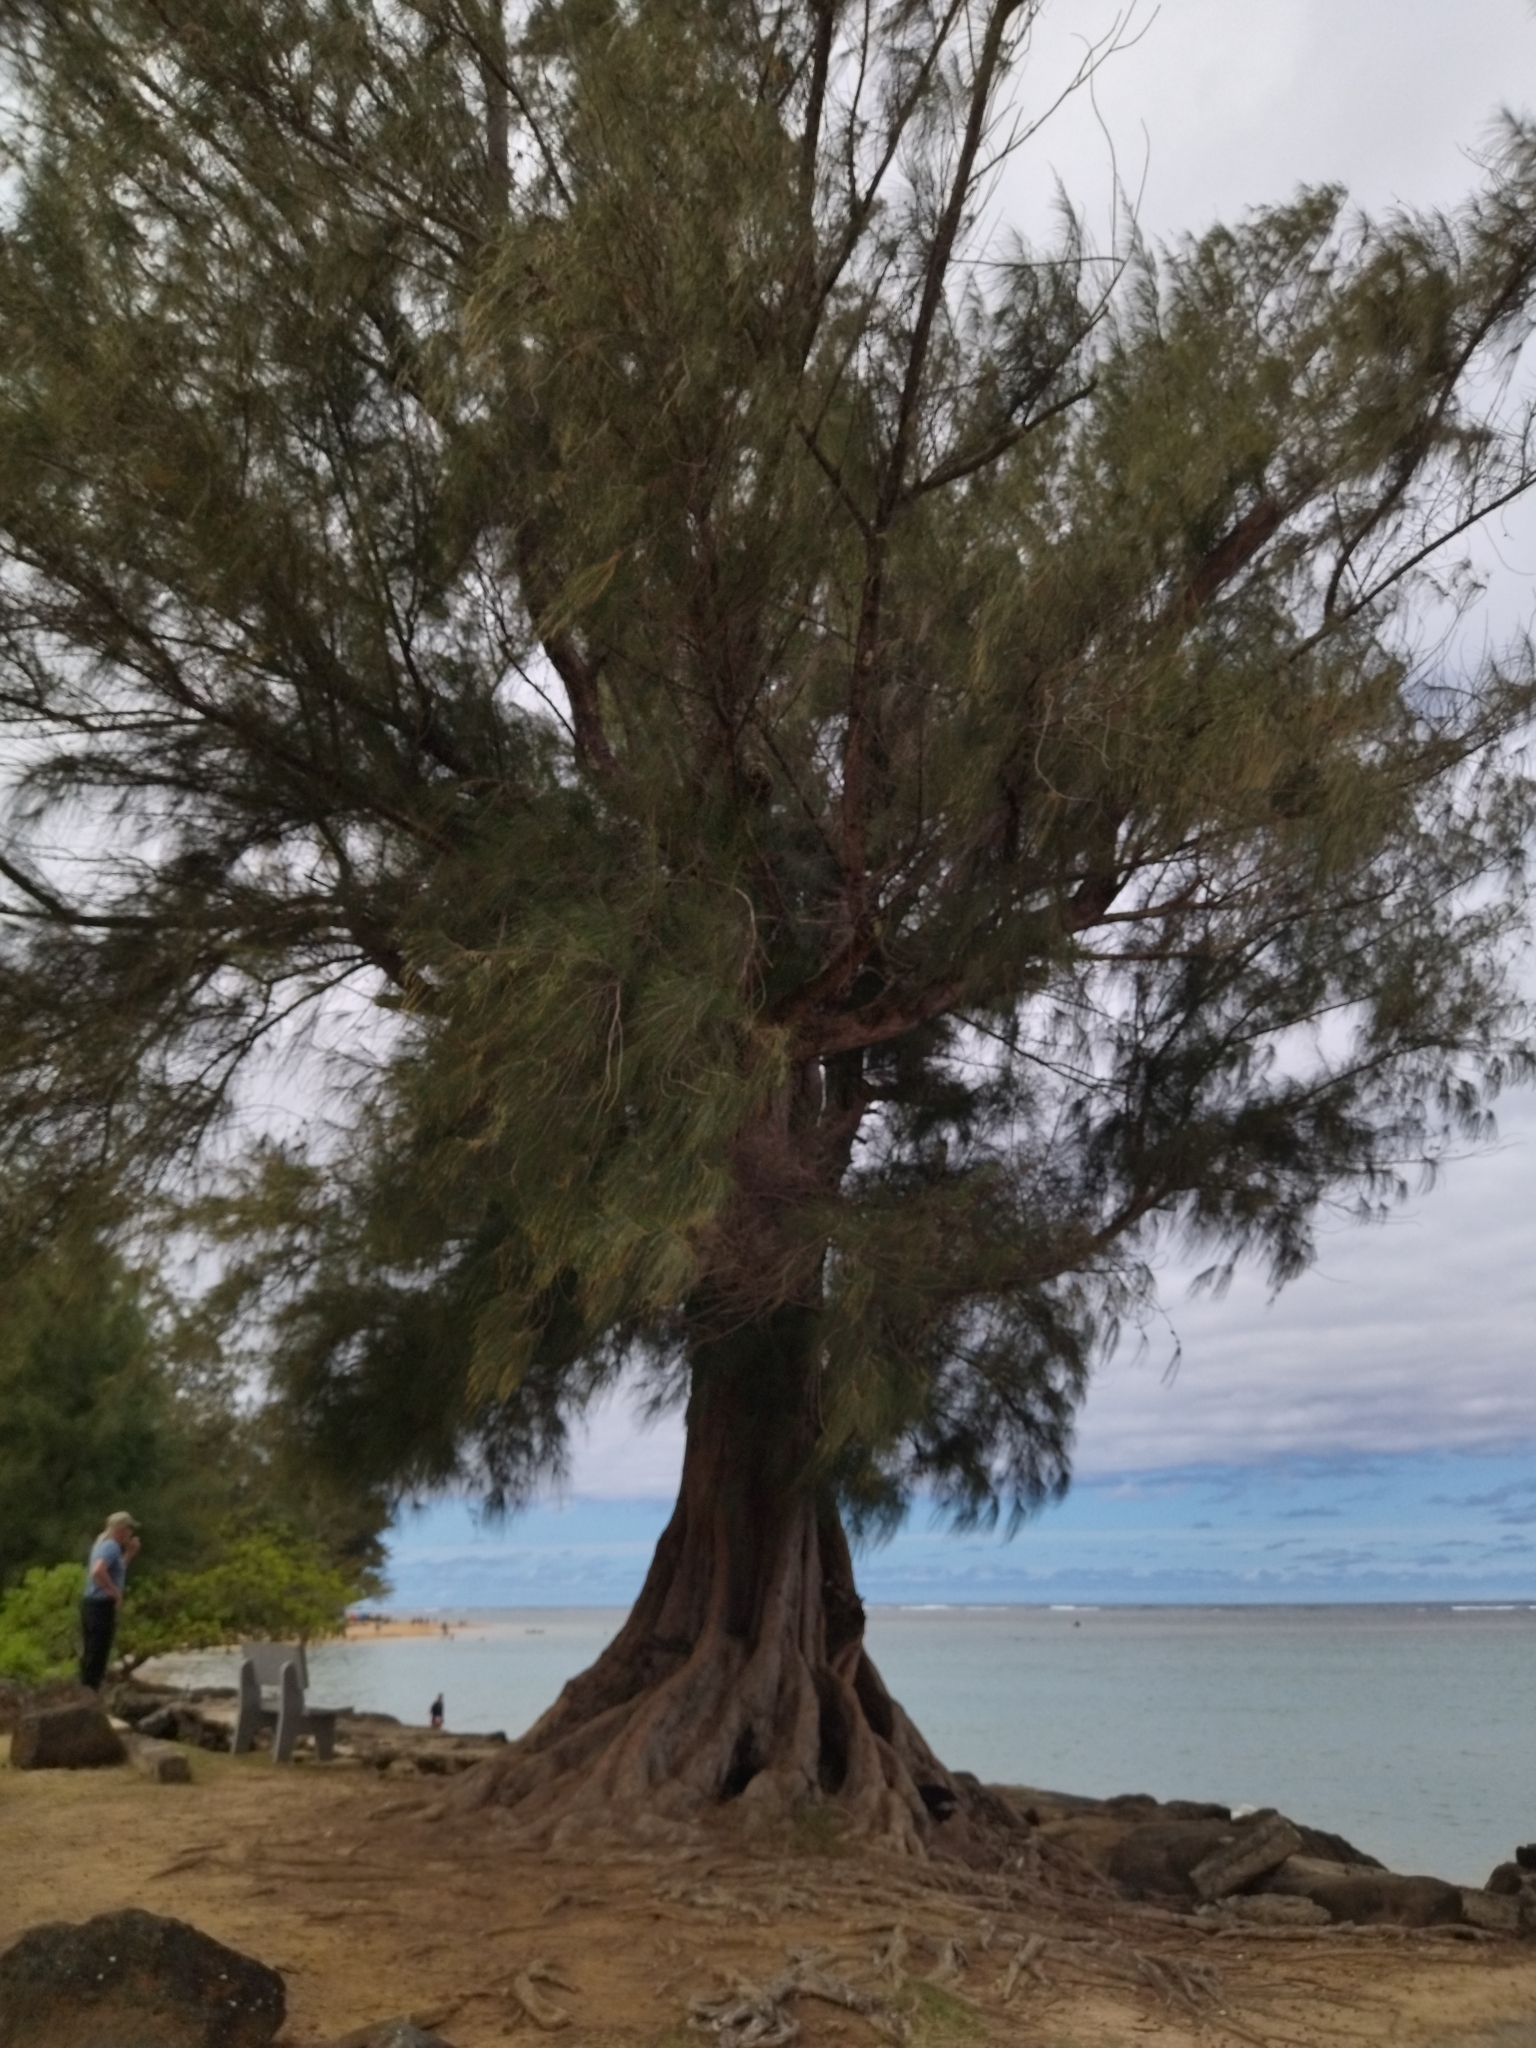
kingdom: Plantae
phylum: Tracheophyta
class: Magnoliopsida
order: Fagales
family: Casuarinaceae
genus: Casuarina
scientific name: Casuarina equisetifolia
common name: Beach sheoak
